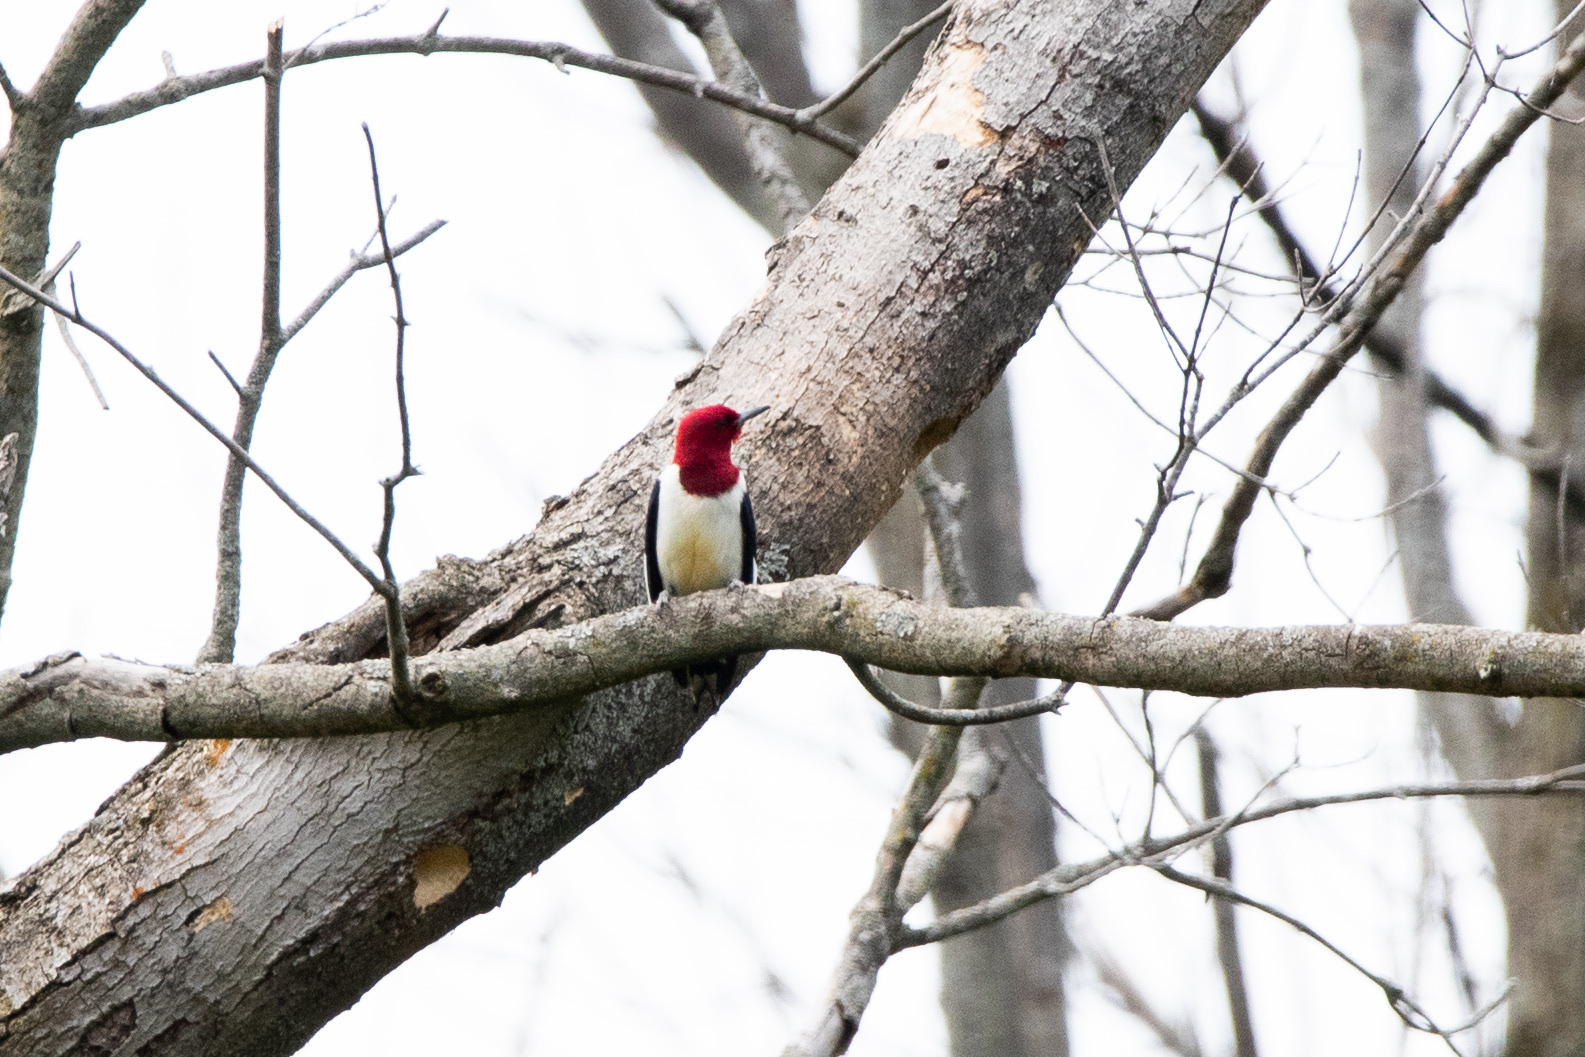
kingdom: Animalia
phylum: Chordata
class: Aves
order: Piciformes
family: Picidae
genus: Melanerpes
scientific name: Melanerpes erythrocephalus
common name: Red-headed woodpecker
